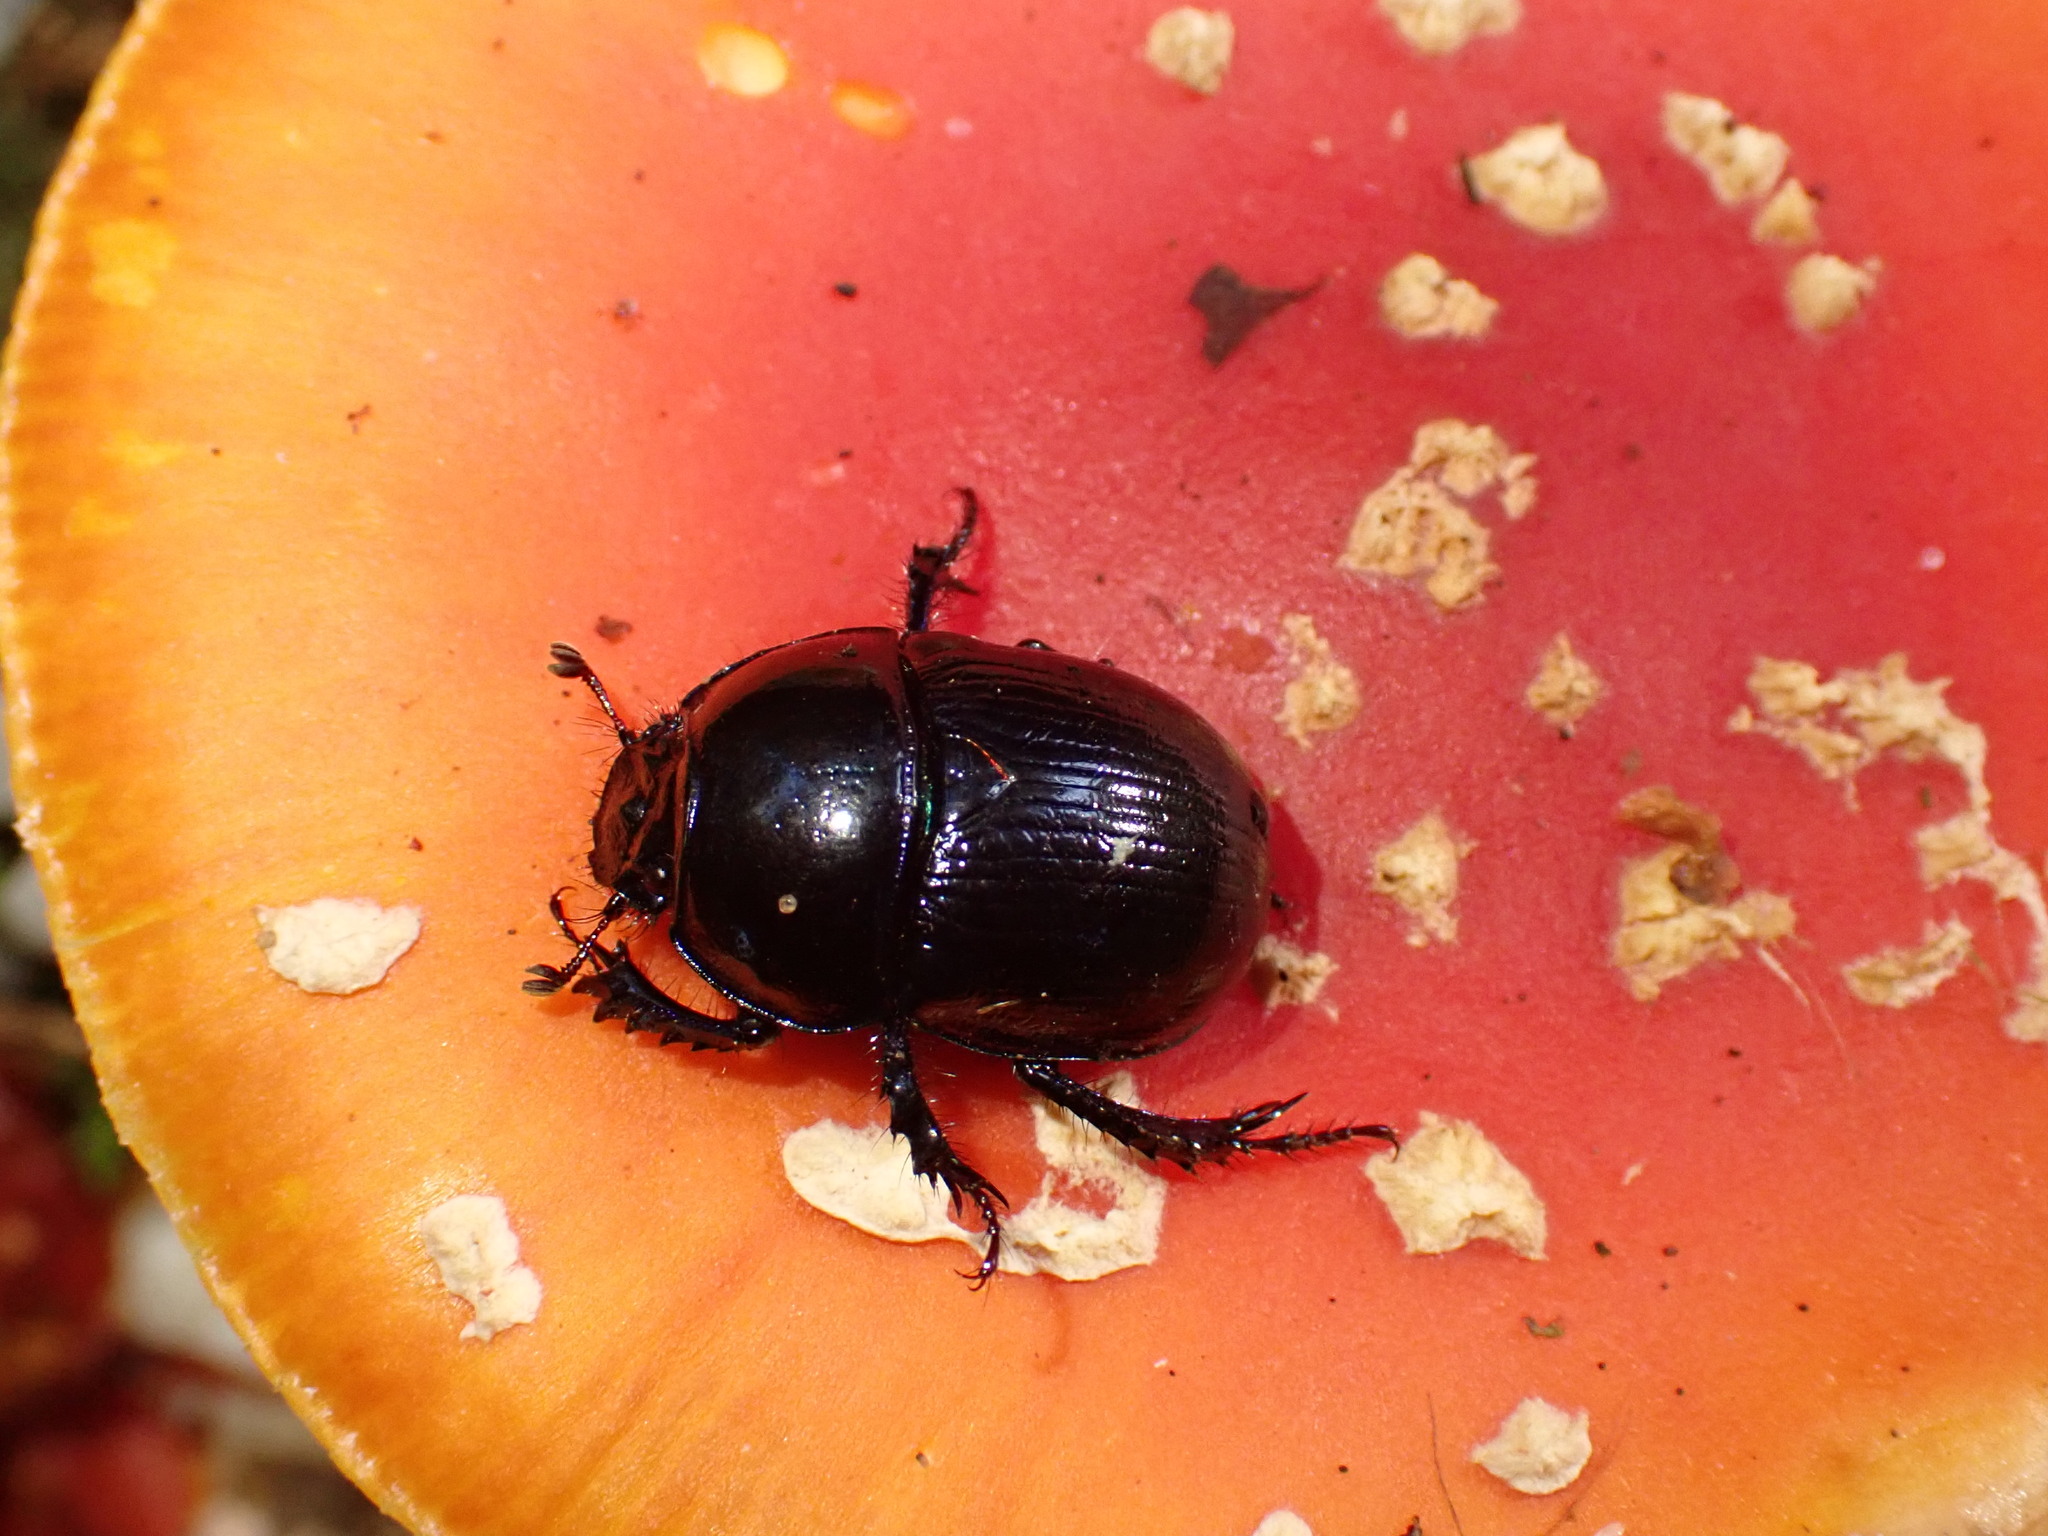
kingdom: Animalia
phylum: Arthropoda
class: Insecta
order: Coleoptera
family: Geotrupidae
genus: Anoplotrupes
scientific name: Anoplotrupes stercorosus
